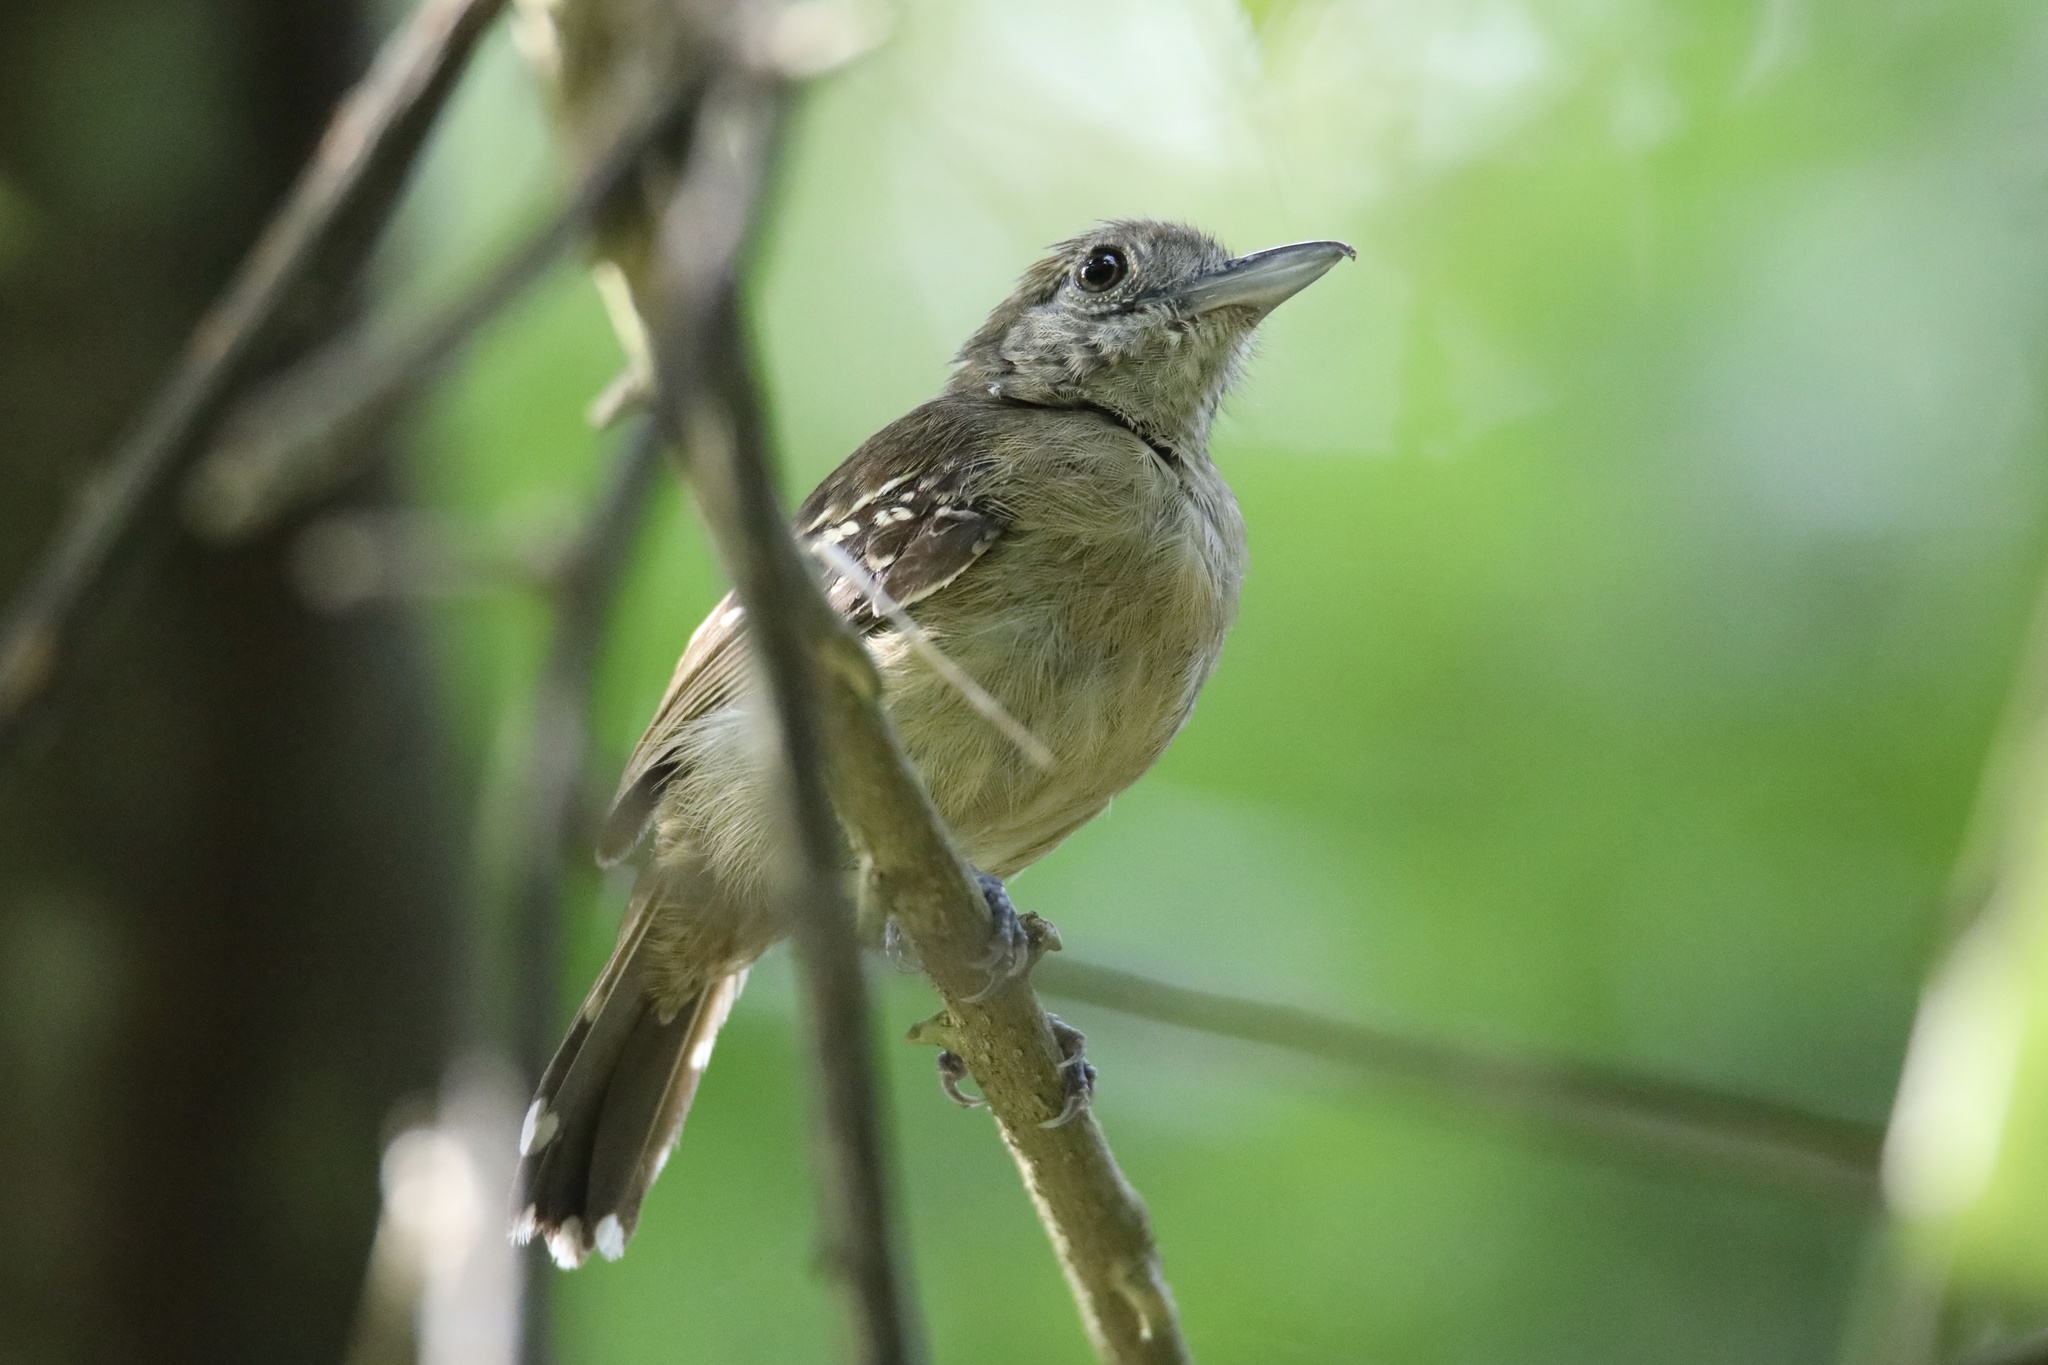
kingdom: Animalia
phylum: Chordata
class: Aves
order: Passeriformes
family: Thamnophilidae
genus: Thamnophilus
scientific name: Thamnophilus atrinucha
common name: Black-crowned antshrike
